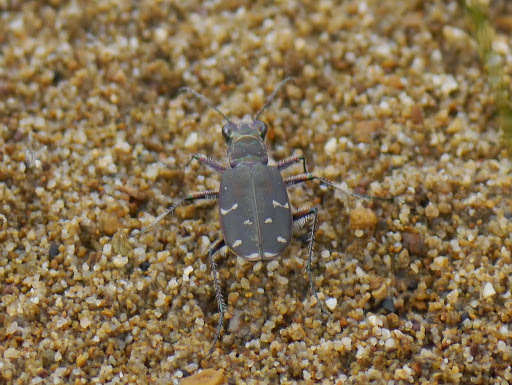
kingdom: Animalia
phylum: Arthropoda
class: Insecta
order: Coleoptera
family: Carabidae
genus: Cicindela
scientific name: Cicindela duodecimguttata
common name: Twelve-spotted tiger beetle
